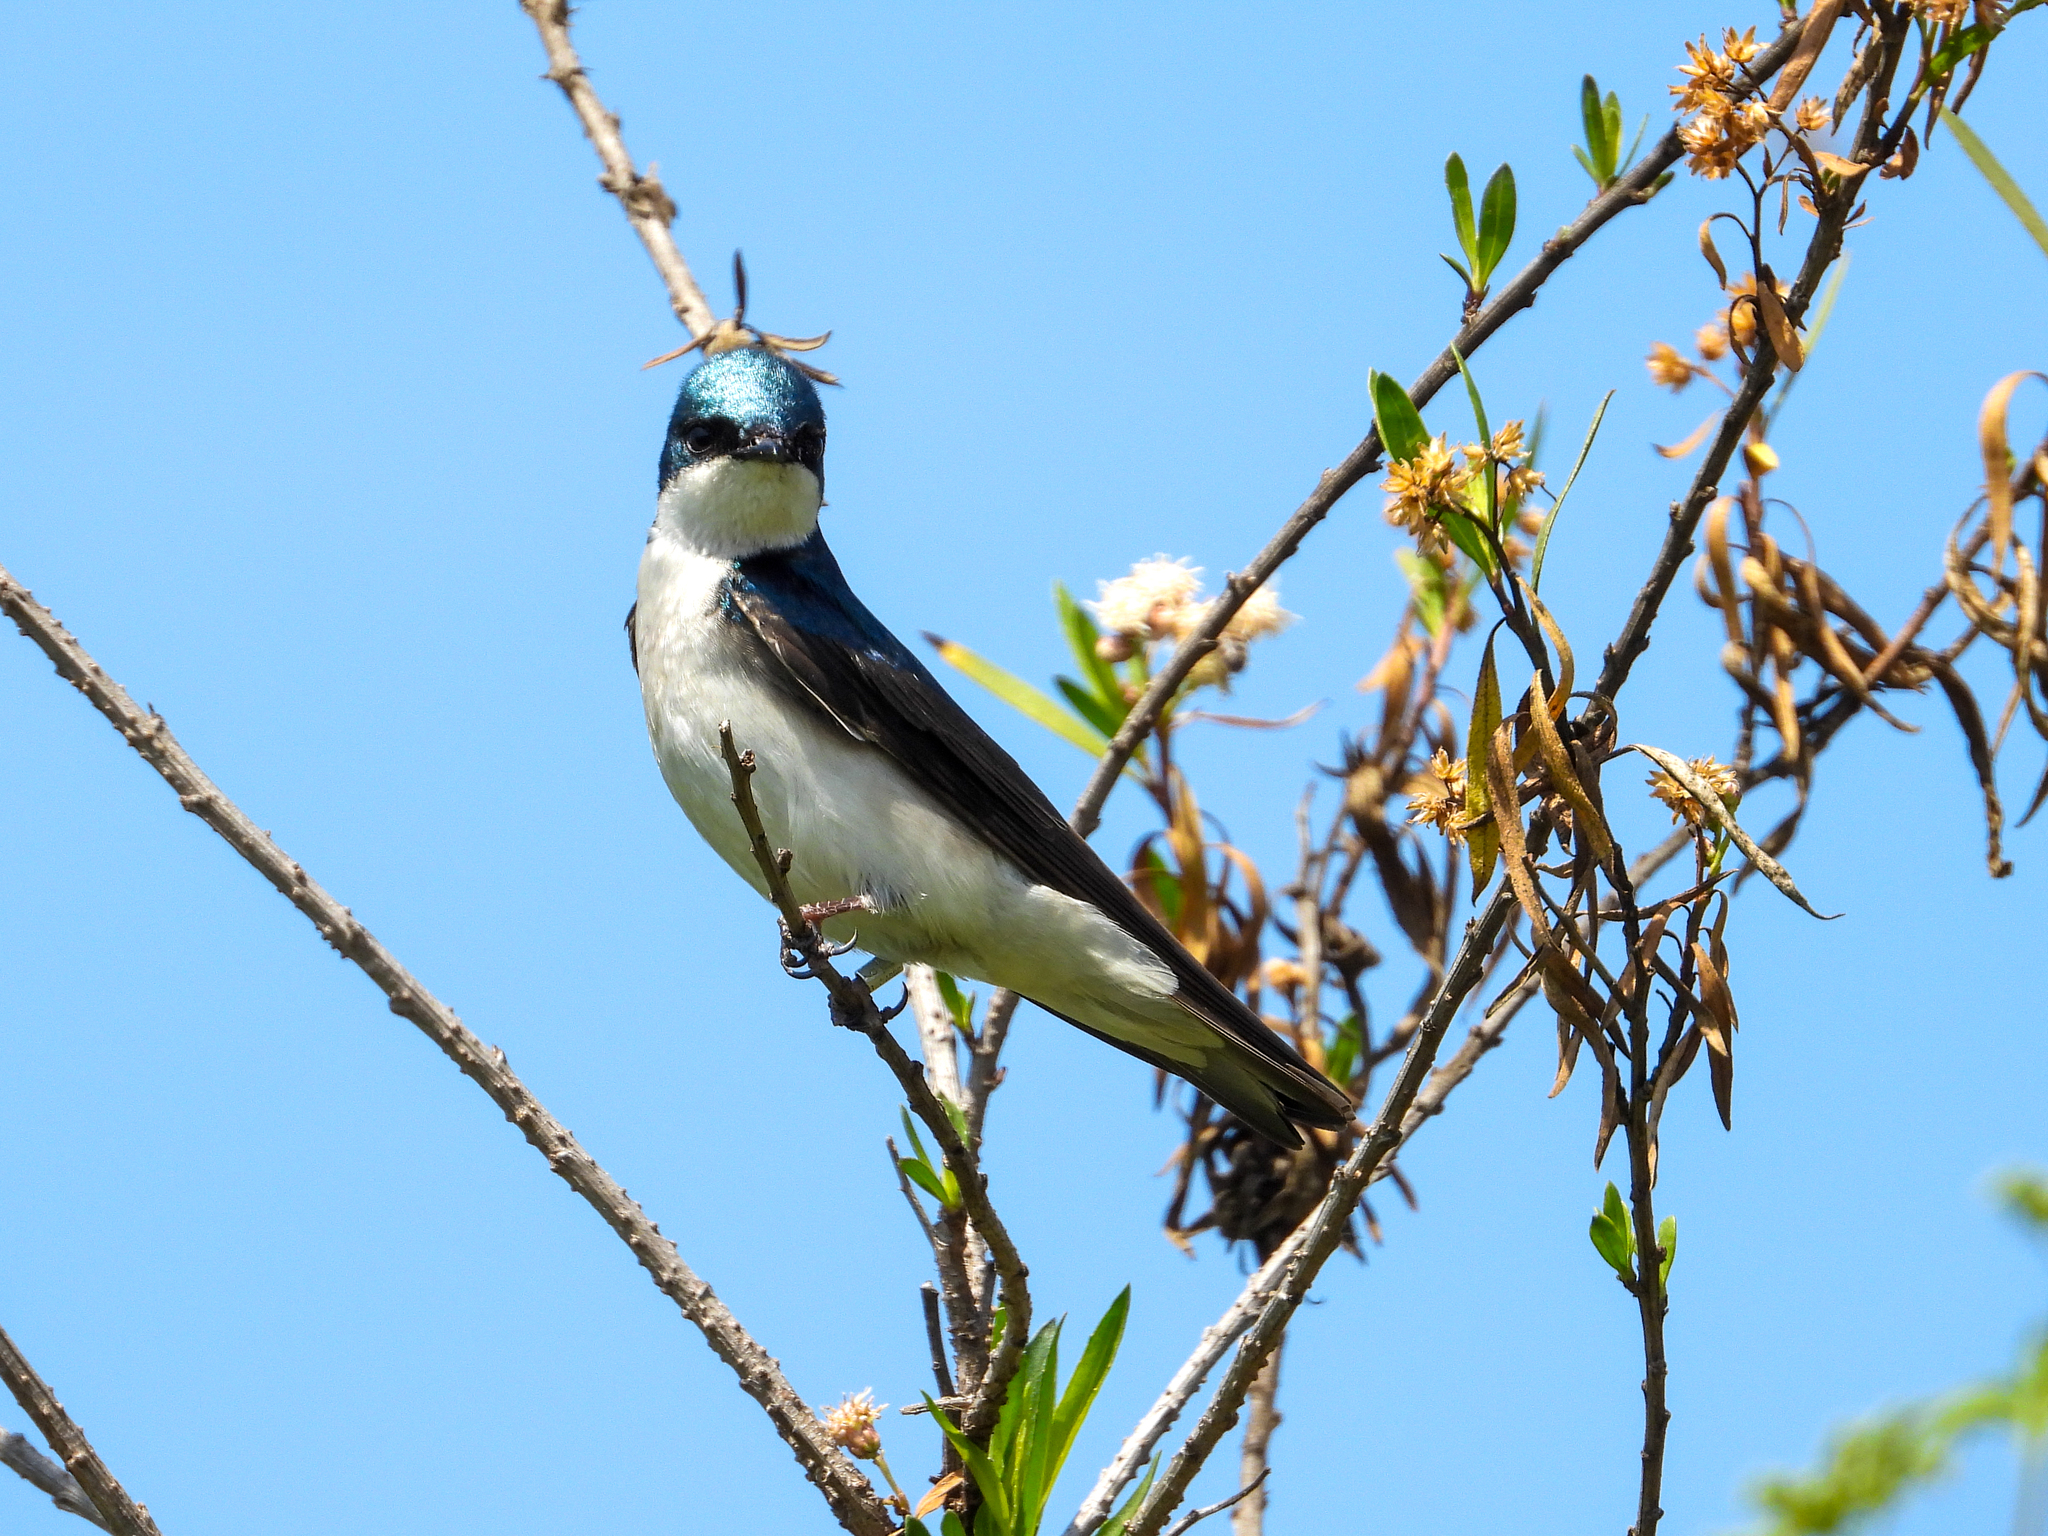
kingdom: Animalia
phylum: Chordata
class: Aves
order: Passeriformes
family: Hirundinidae
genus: Tachycineta
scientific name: Tachycineta bicolor
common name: Tree swallow
